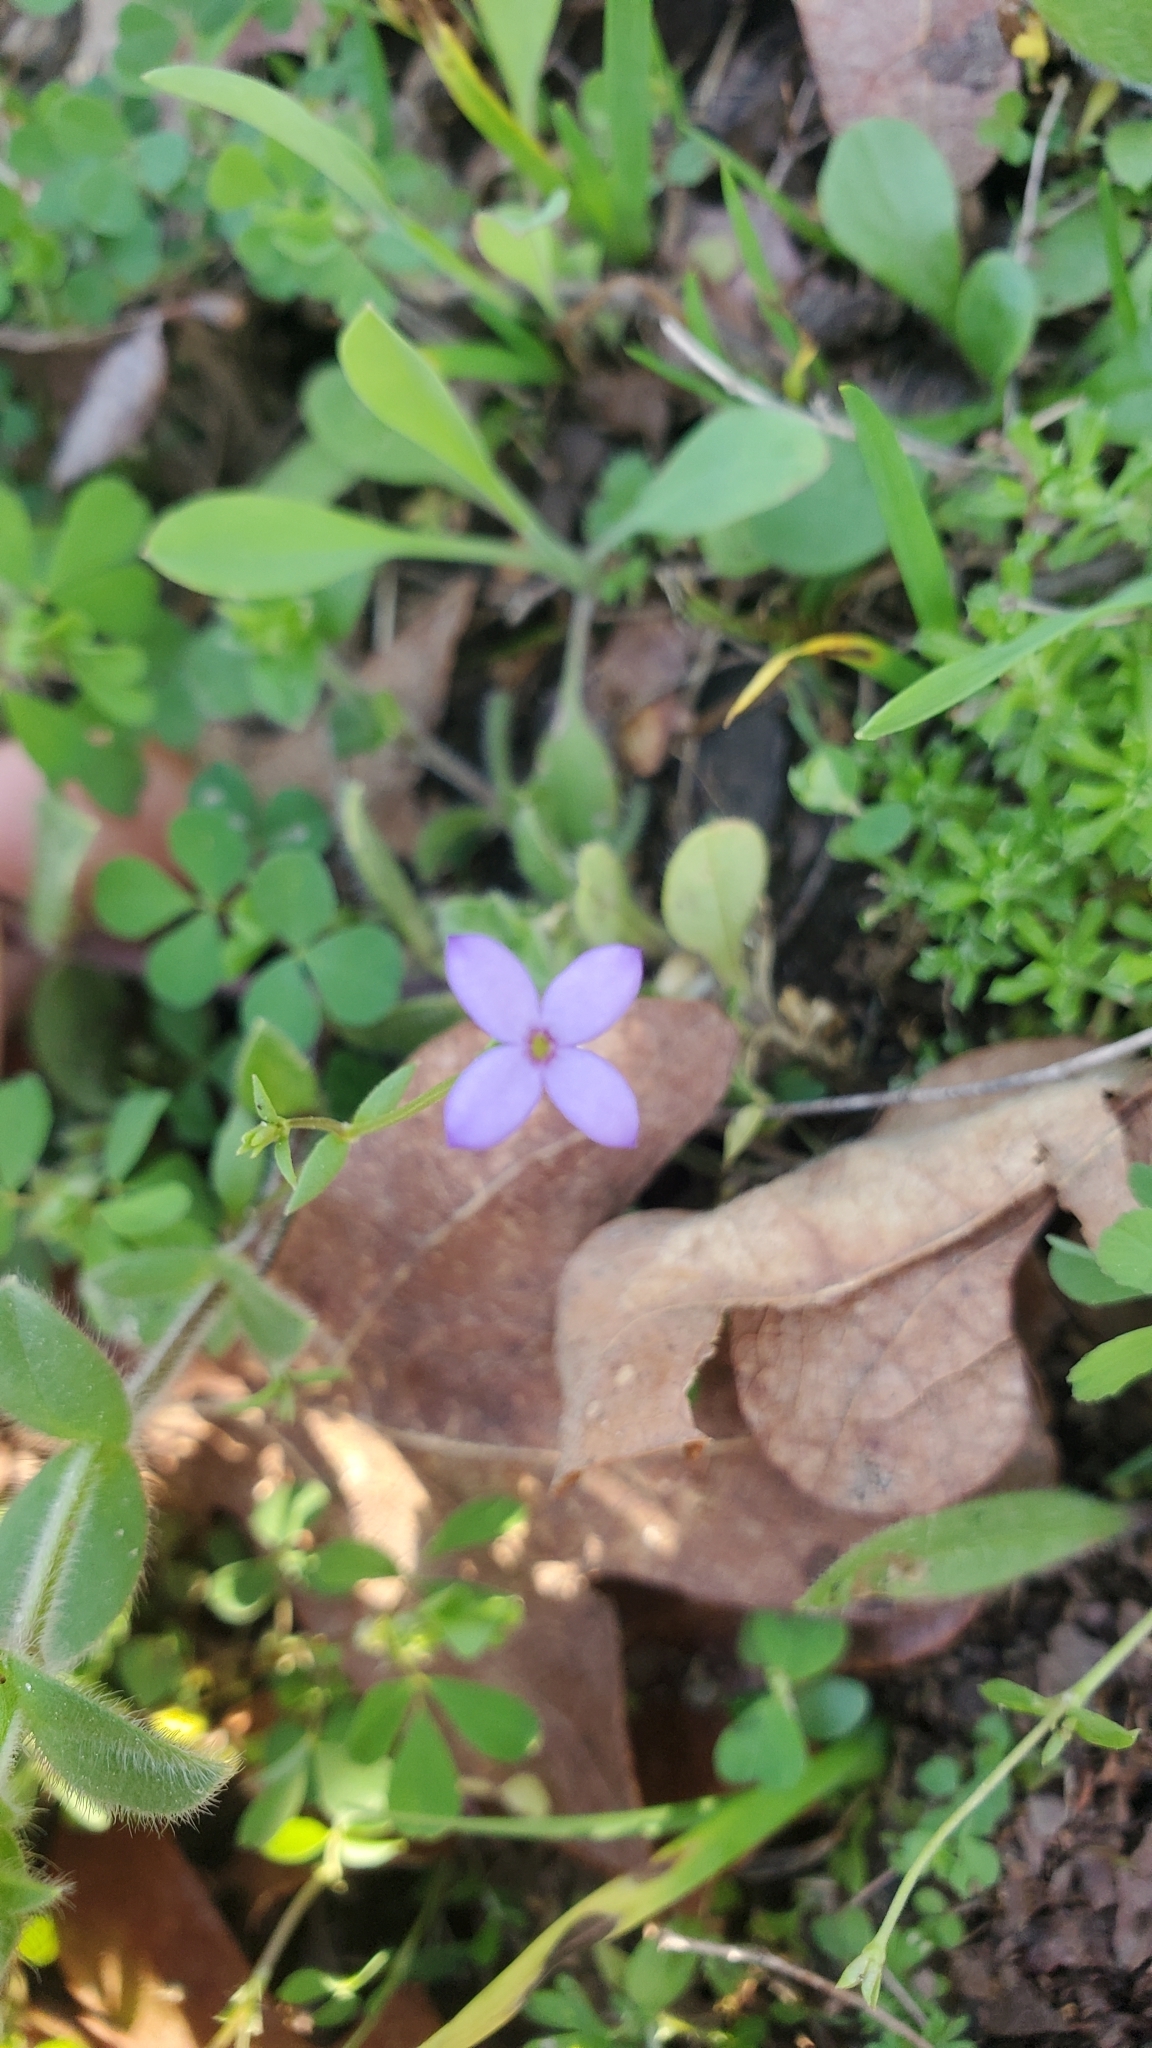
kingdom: Plantae
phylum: Tracheophyta
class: Magnoliopsida
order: Gentianales
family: Rubiaceae
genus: Houstonia
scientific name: Houstonia pusilla
